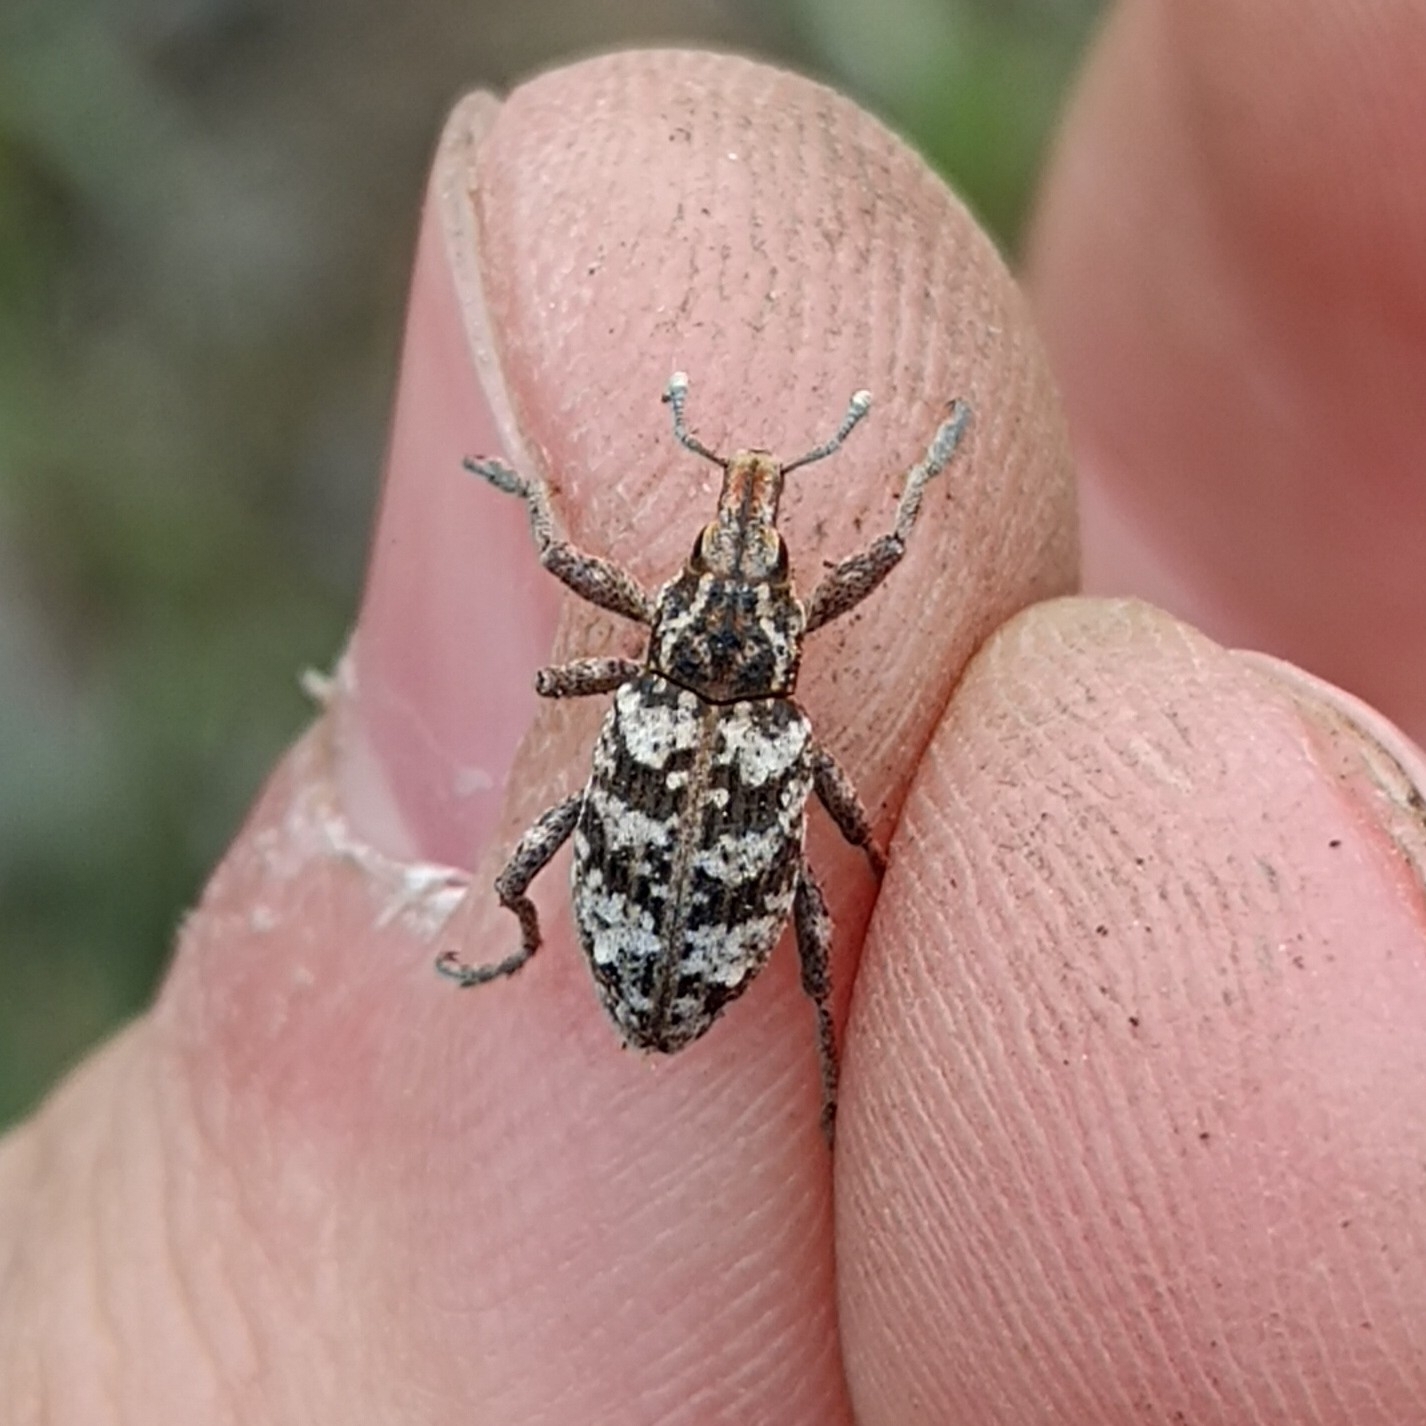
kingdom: Animalia
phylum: Arthropoda
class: Insecta
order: Coleoptera
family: Curculionidae
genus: Coniocleonus
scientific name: Coniocleonus turbatus
